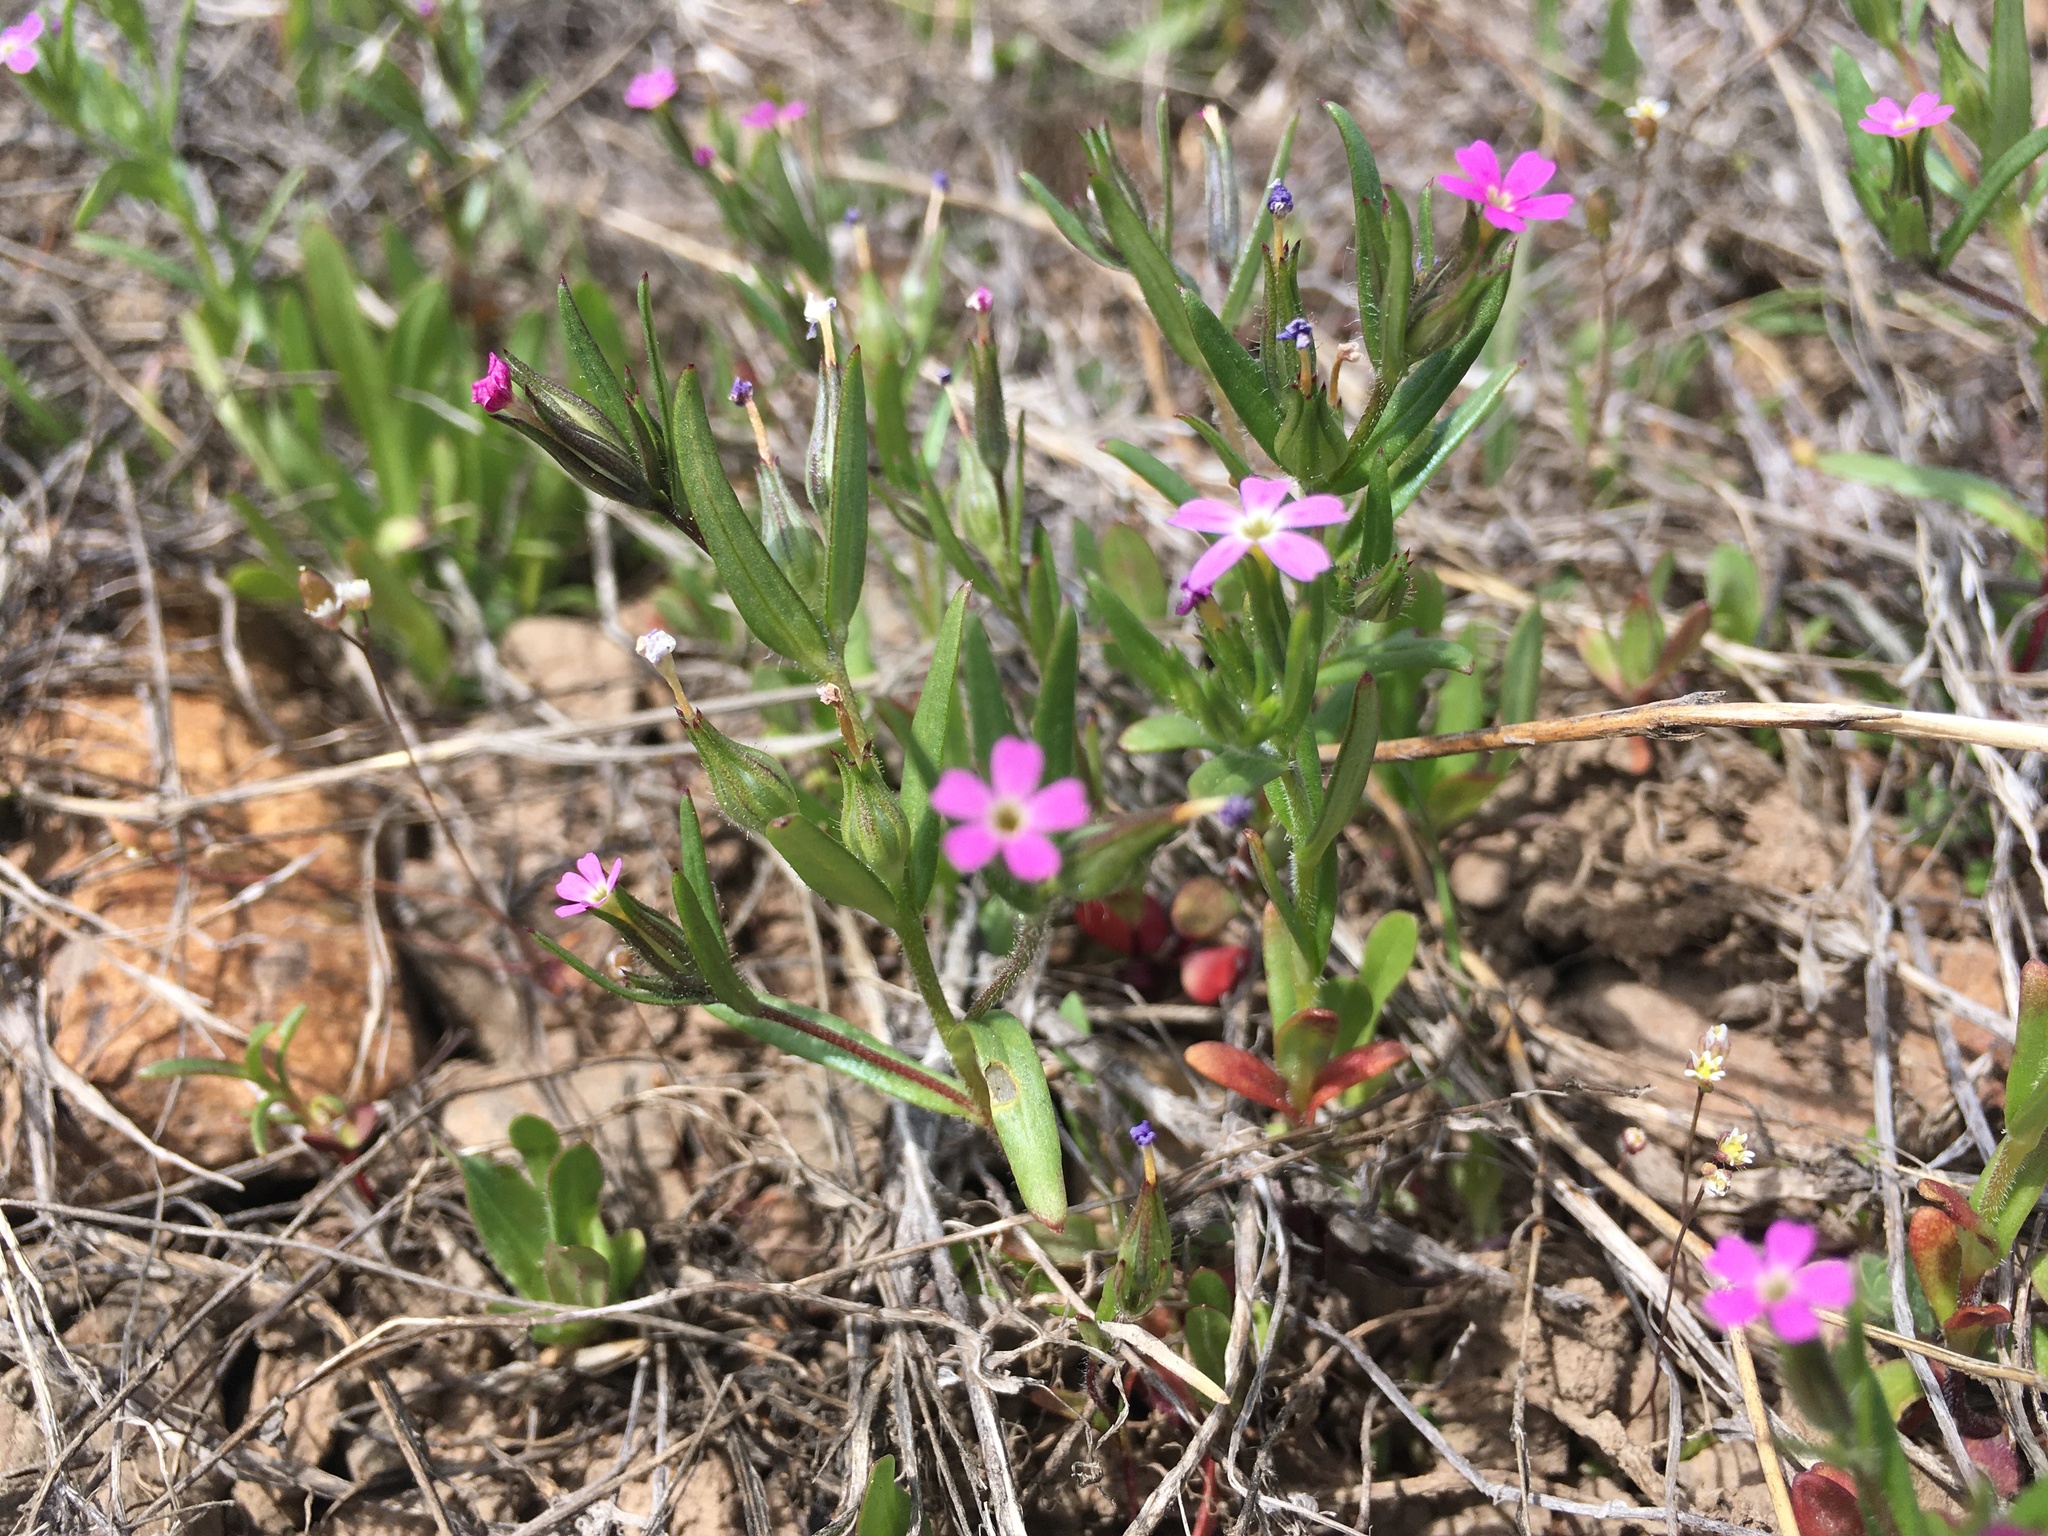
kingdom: Plantae
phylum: Tracheophyta
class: Magnoliopsida
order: Ericales
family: Polemoniaceae
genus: Phlox
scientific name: Phlox gracilis
